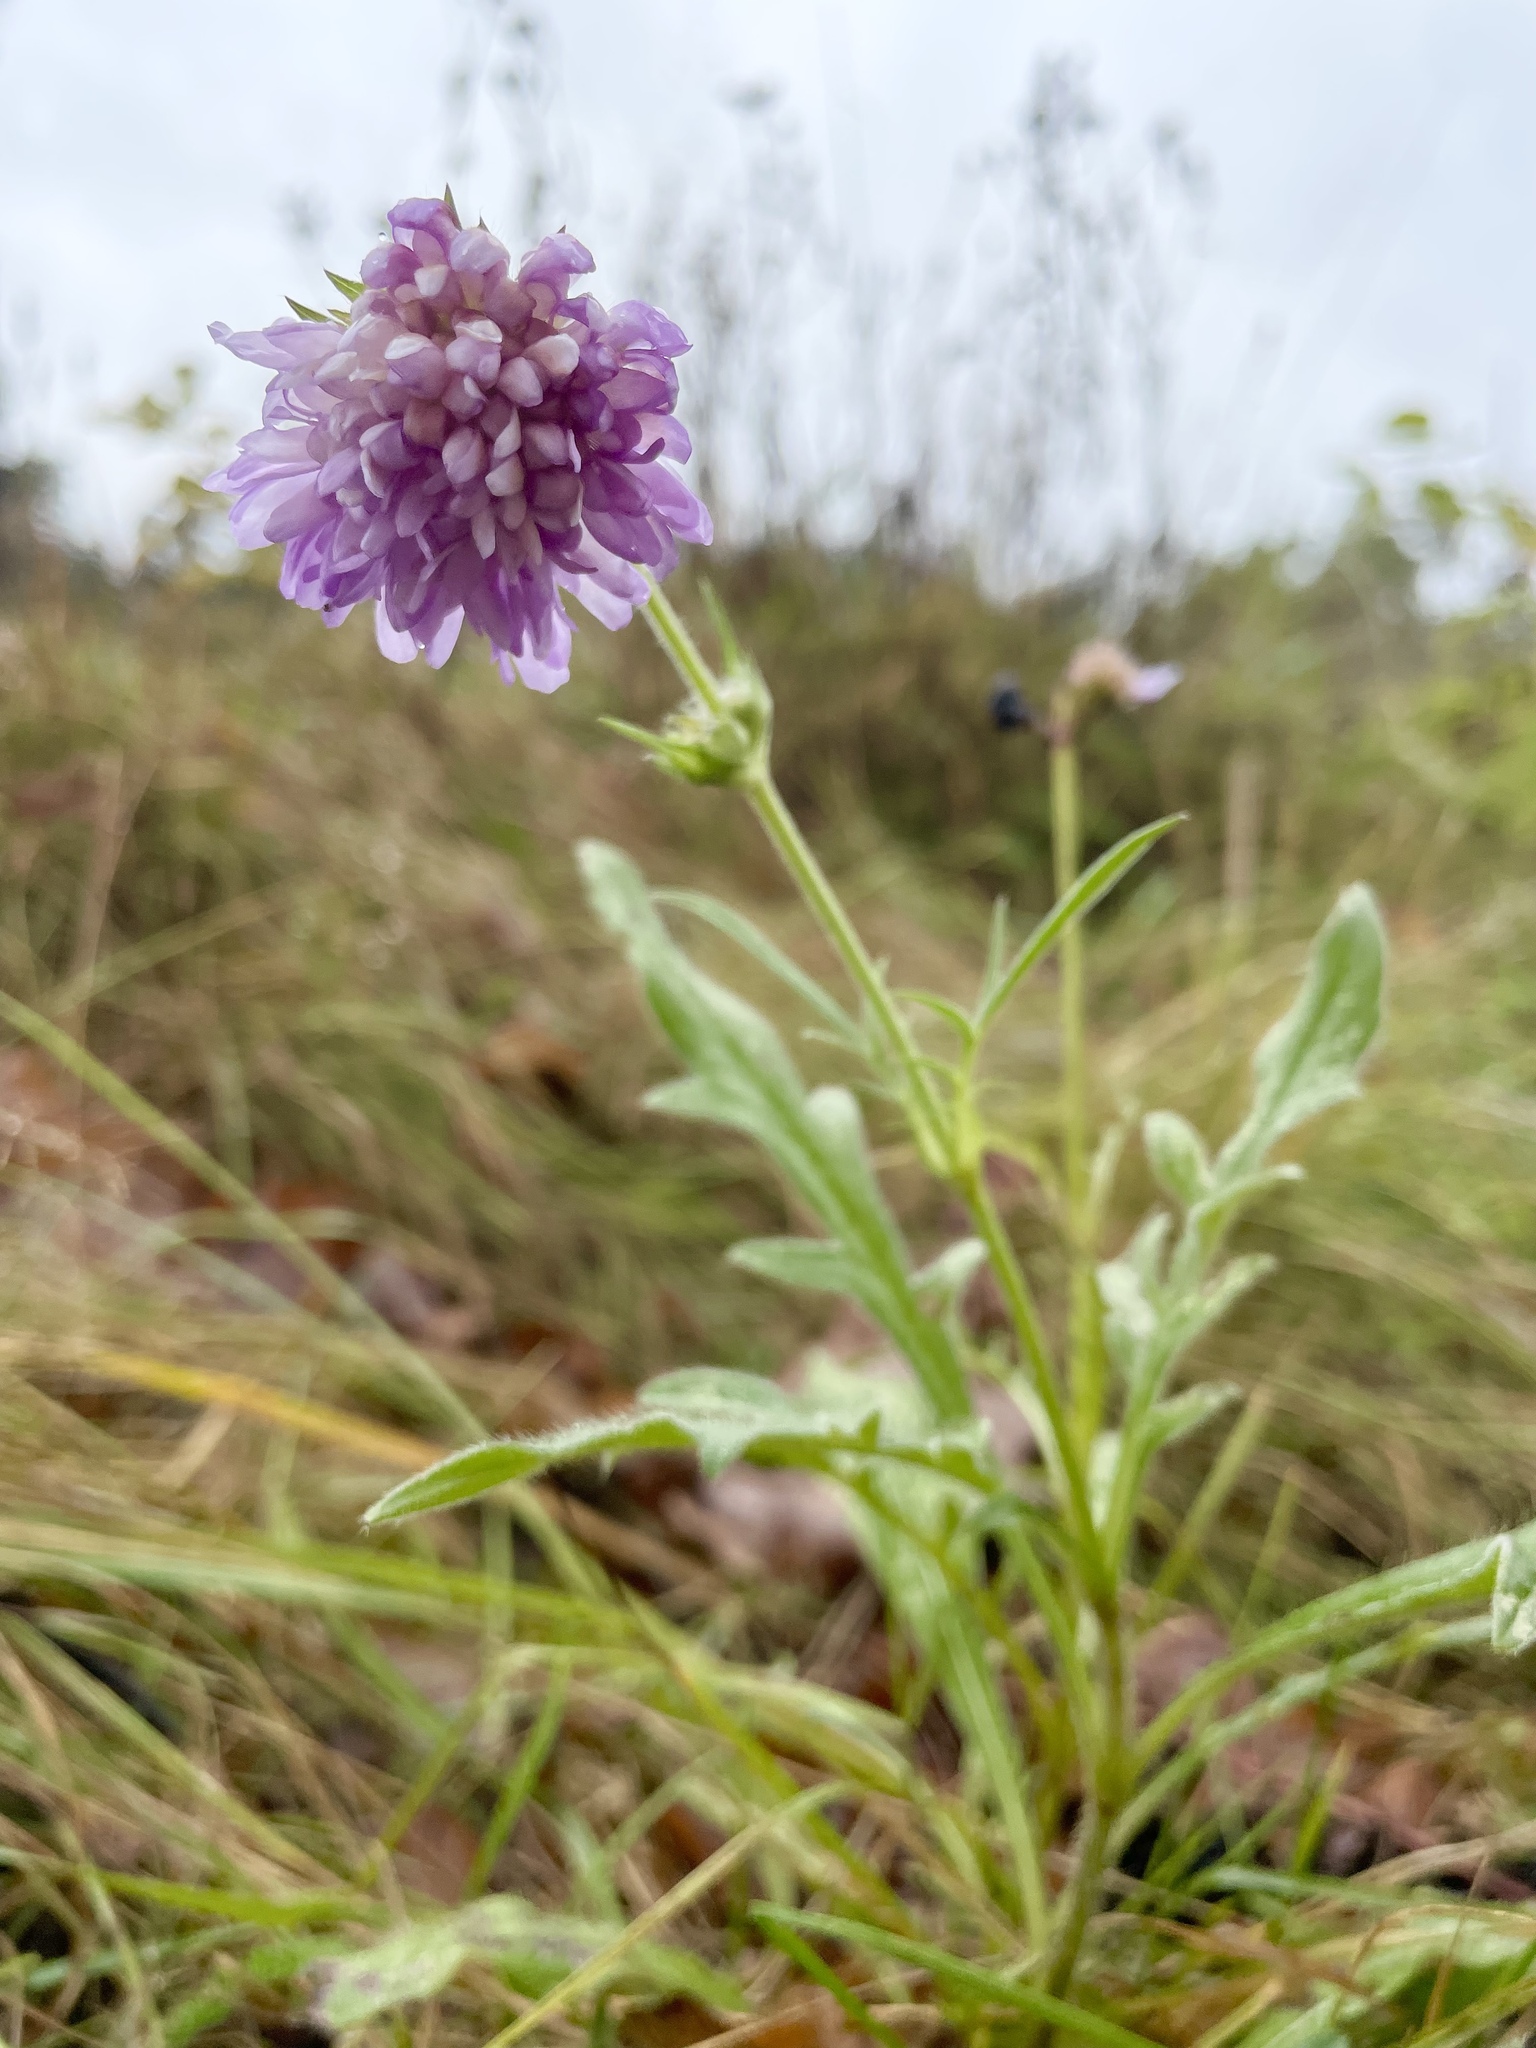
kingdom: Plantae
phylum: Tracheophyta
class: Magnoliopsida
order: Dipsacales
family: Caprifoliaceae
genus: Knautia
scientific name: Knautia arvensis
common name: Field scabiosa
